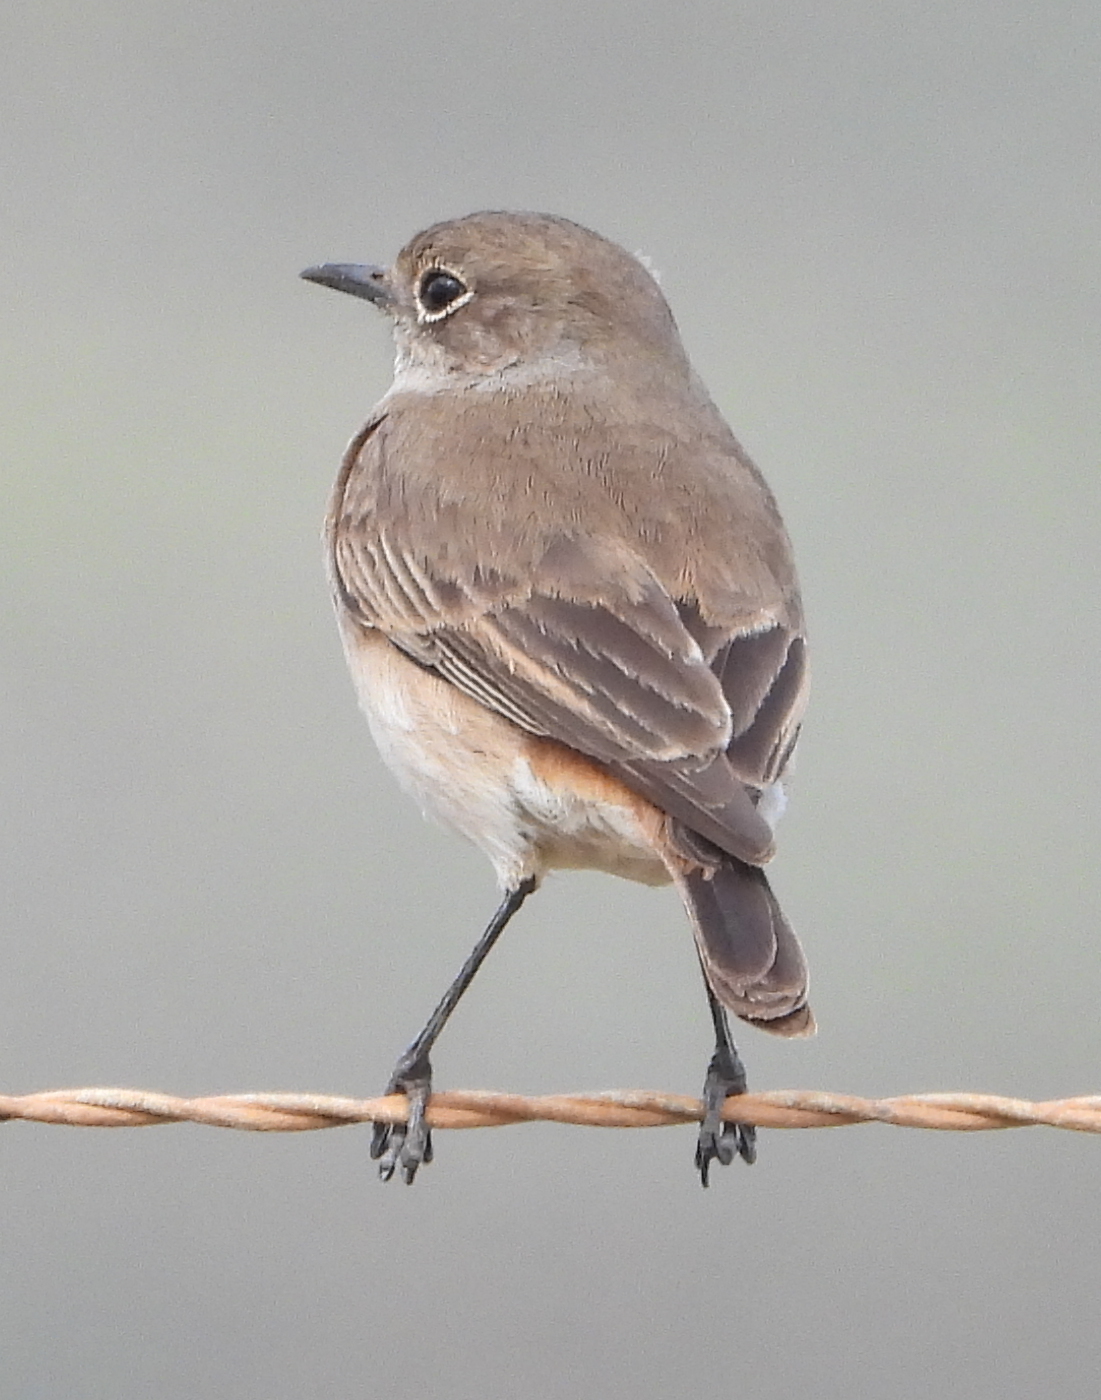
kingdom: Animalia
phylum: Chordata
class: Aves
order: Passeriformes
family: Muscicapidae
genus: Oenanthe
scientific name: Oenanthe familiaris
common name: Familiar chat
